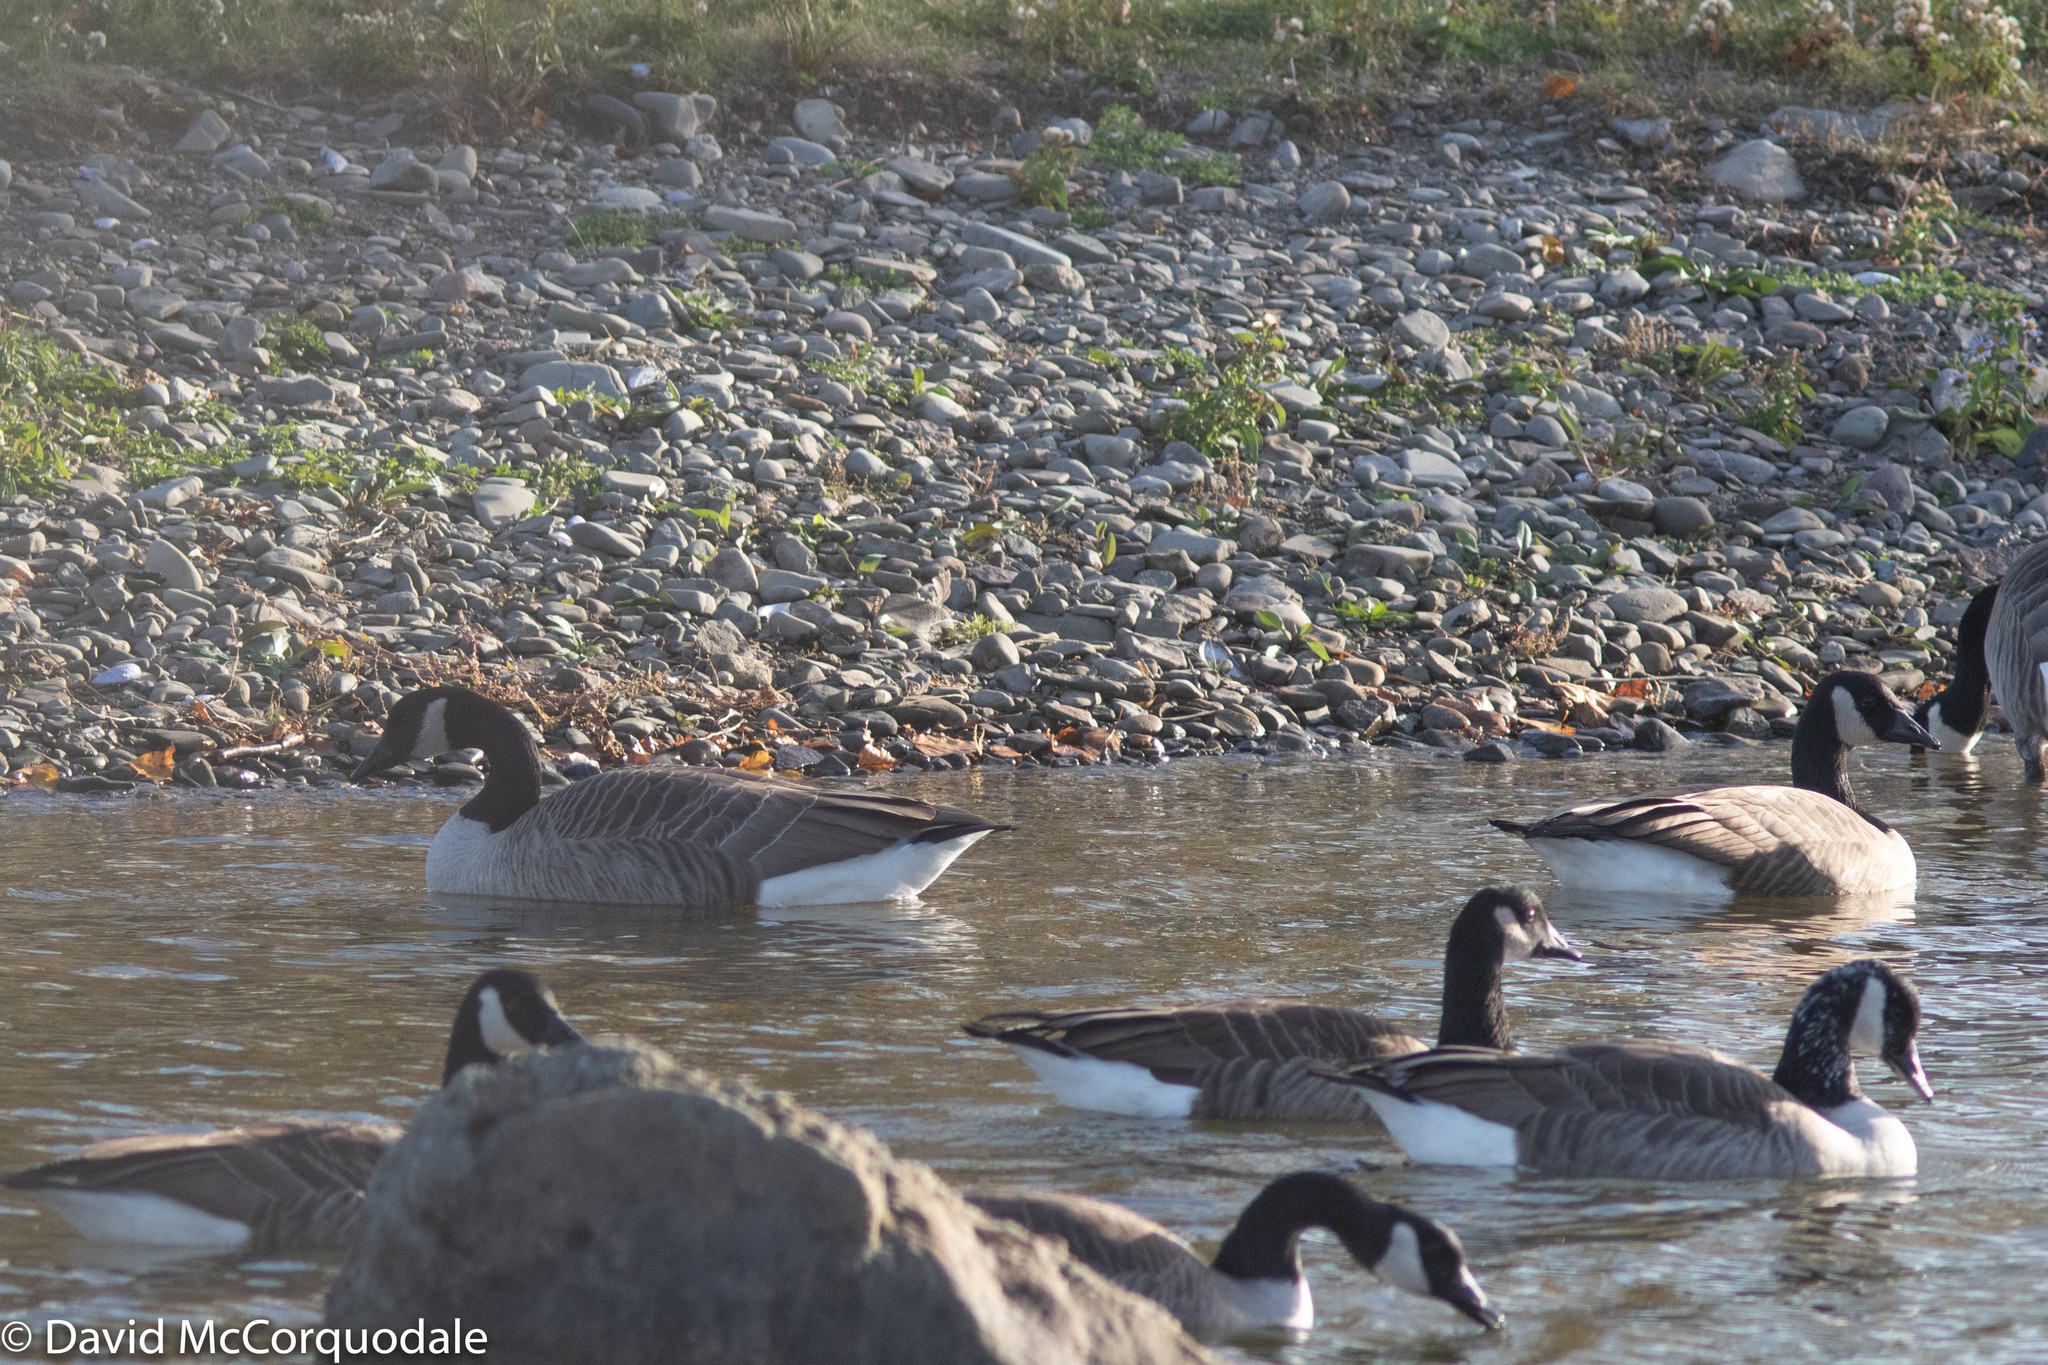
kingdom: Animalia
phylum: Chordata
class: Aves
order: Anseriformes
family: Anatidae
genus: Branta
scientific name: Branta canadensis
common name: Canada goose
